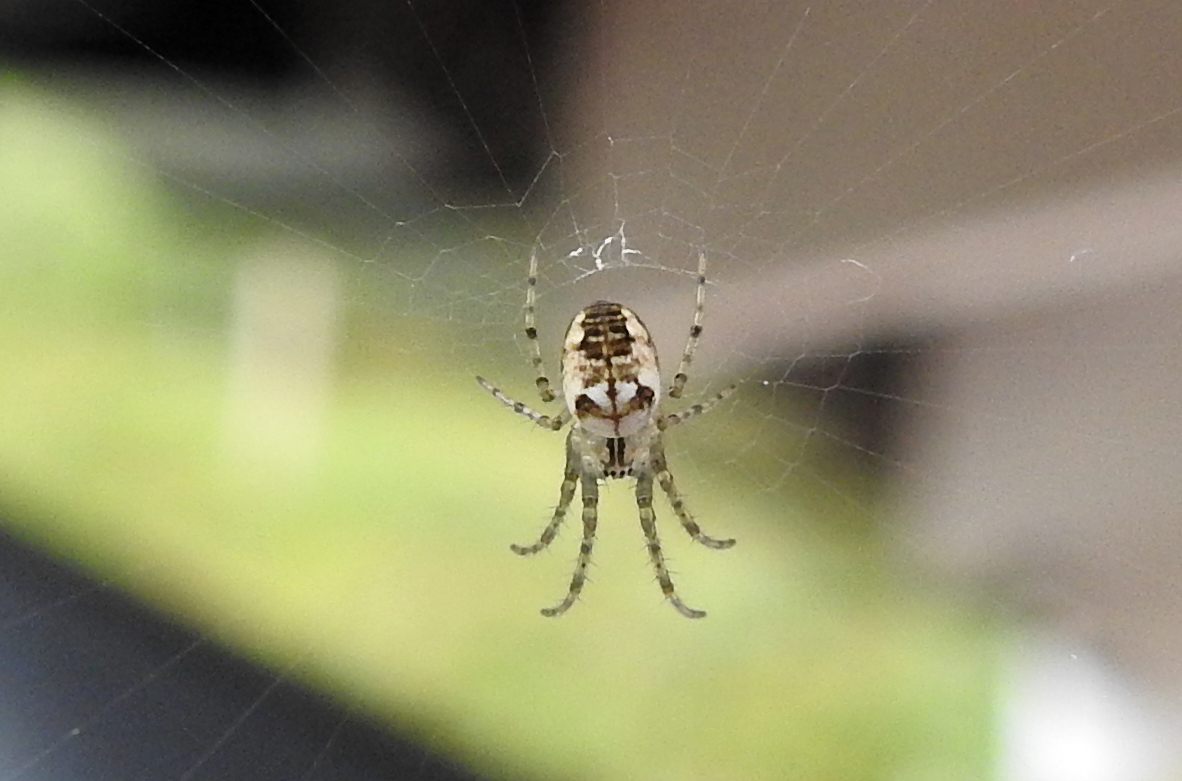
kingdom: Animalia
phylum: Arthropoda
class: Arachnida
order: Araneae
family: Tetragnathidae
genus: Metellina
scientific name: Metellina
